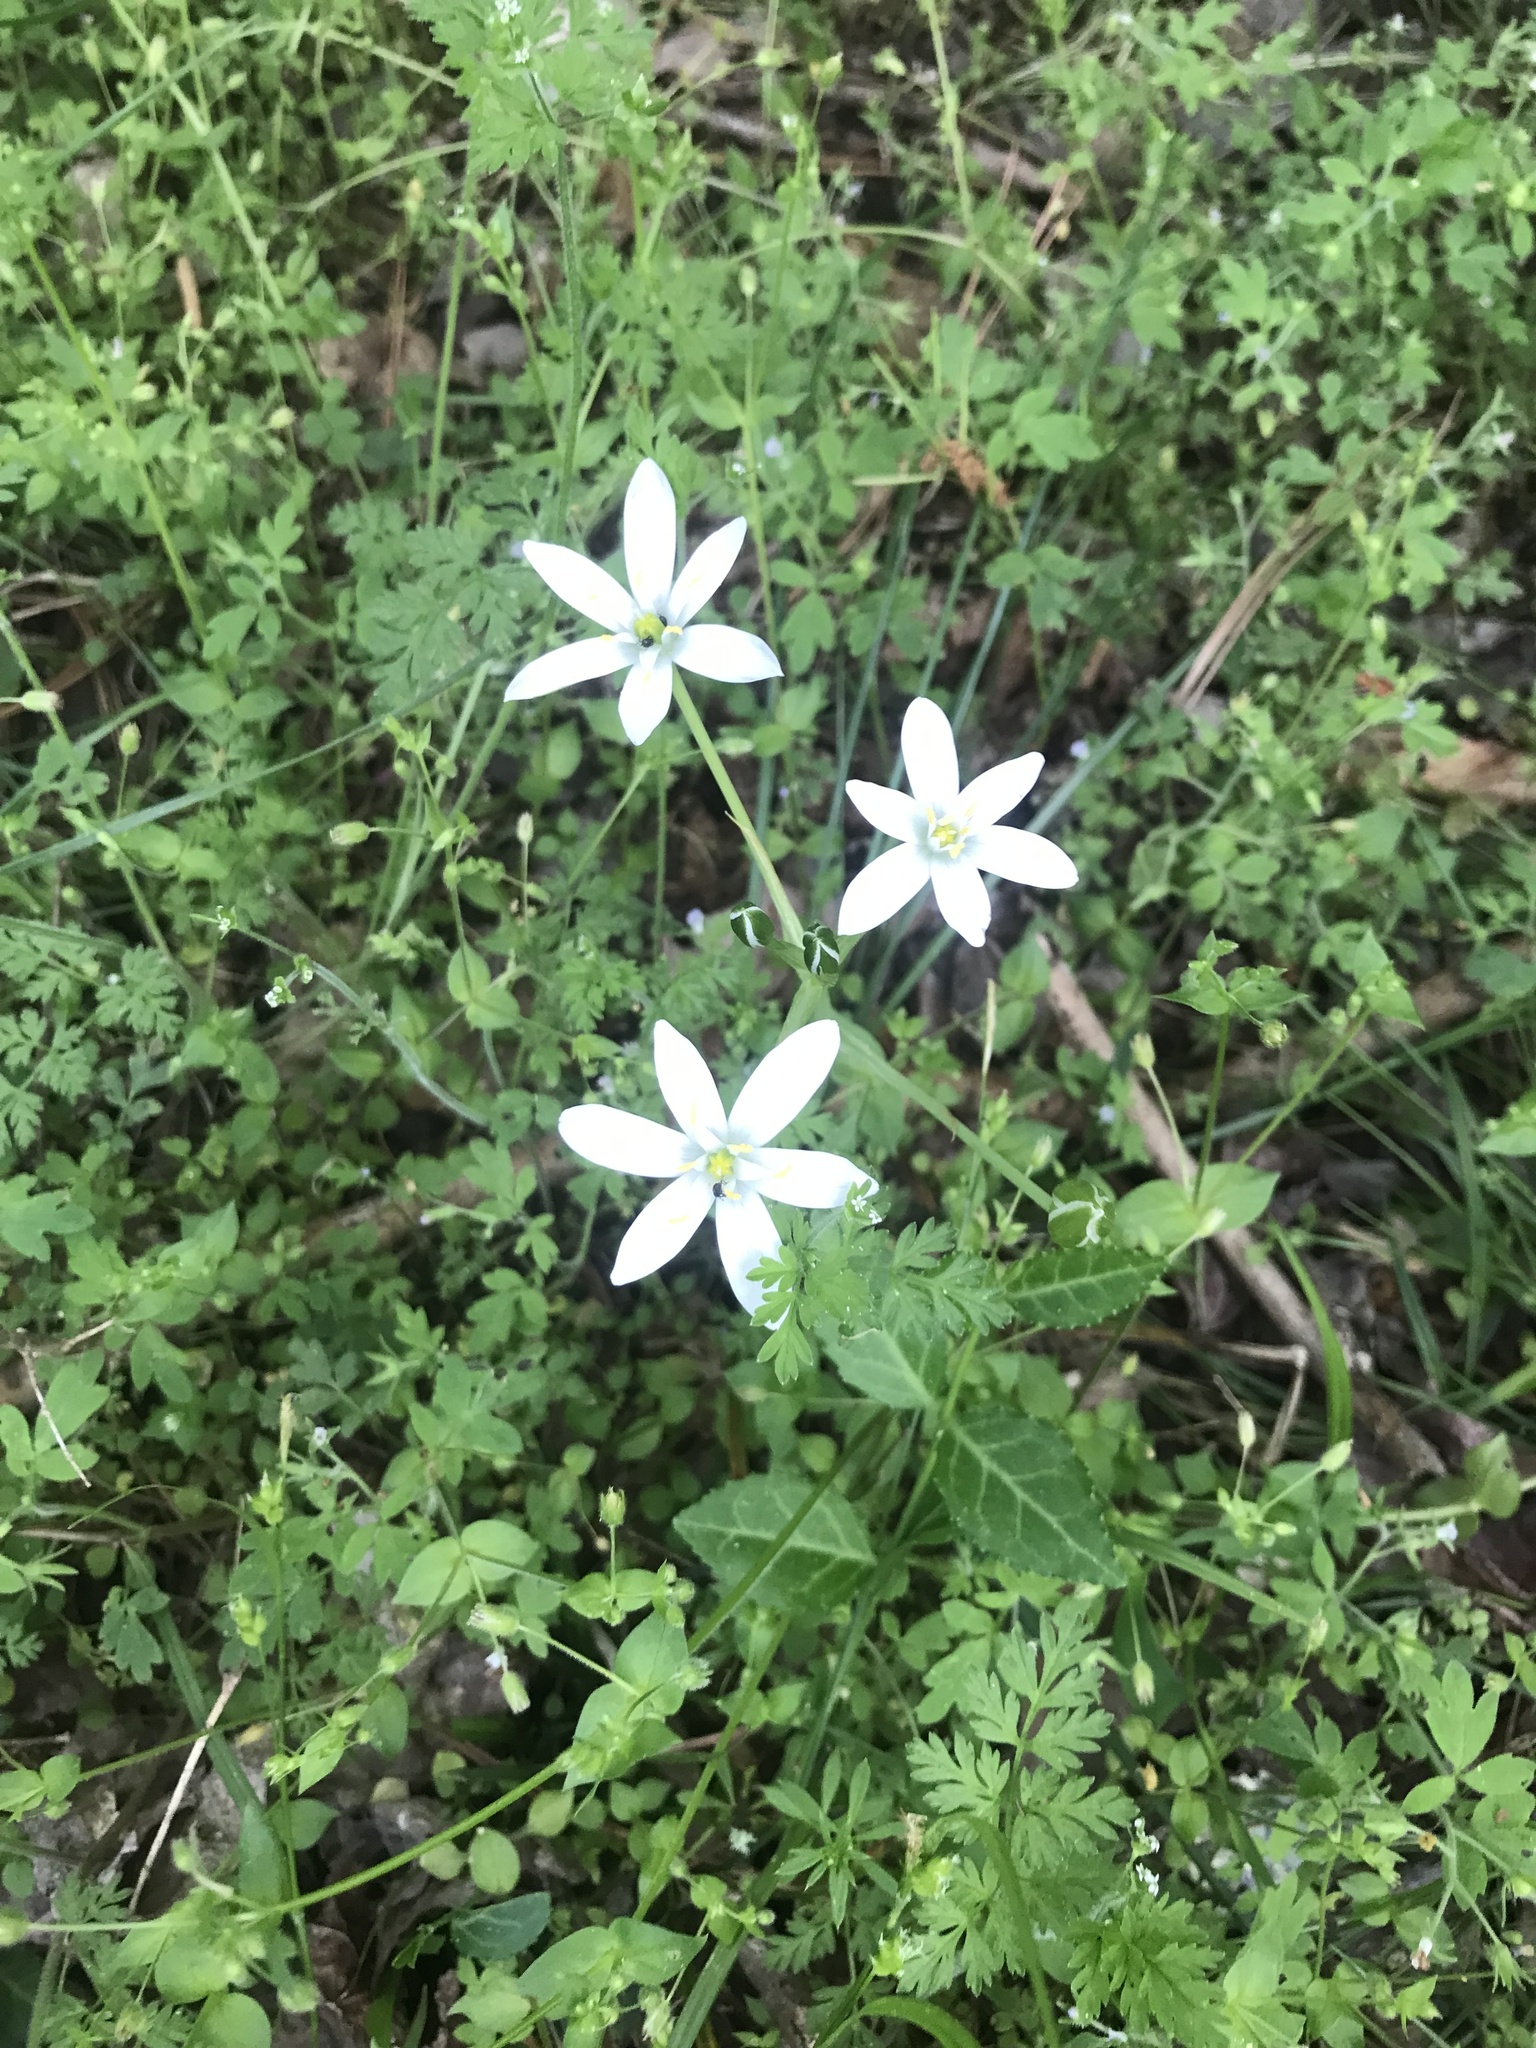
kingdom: Plantae
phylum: Tracheophyta
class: Liliopsida
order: Asparagales
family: Asparagaceae
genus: Ornithogalum
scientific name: Ornithogalum umbellatum
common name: Garden star-of-bethlehem
